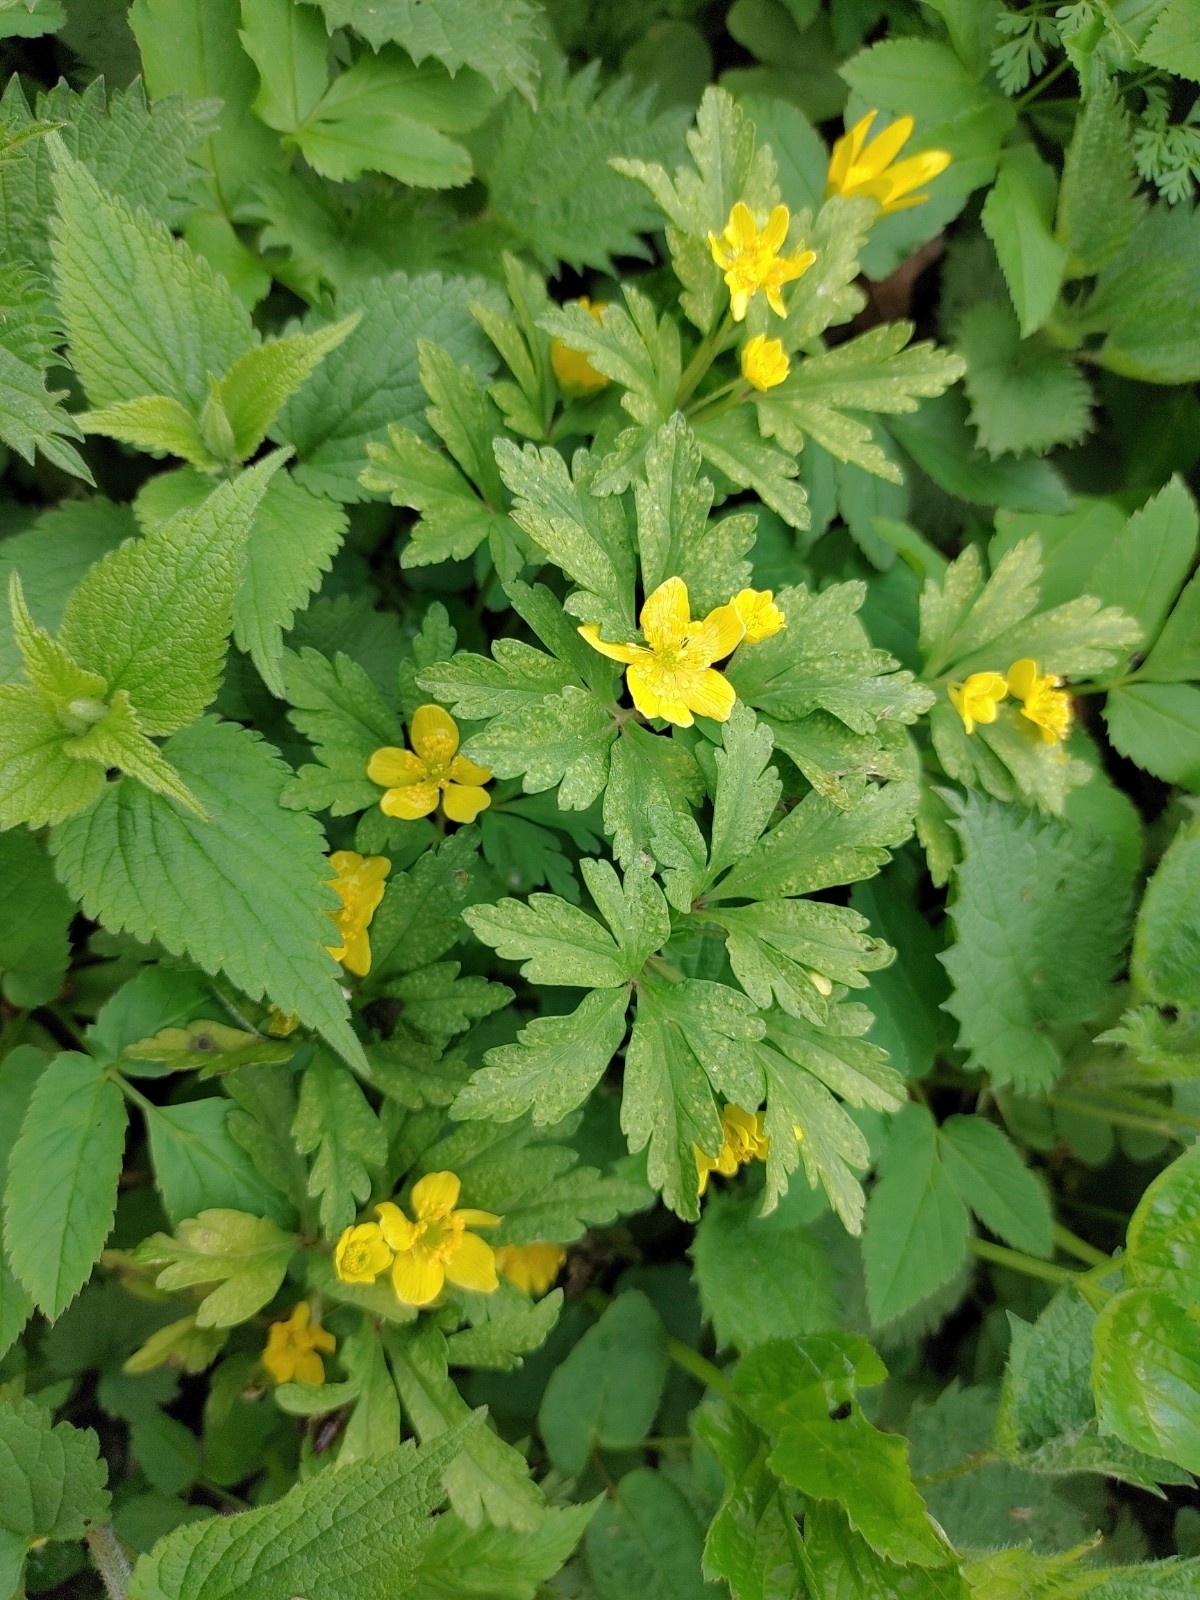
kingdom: Plantae
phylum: Tracheophyta
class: Magnoliopsida
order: Ranunculales
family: Ranunculaceae
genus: Anemone
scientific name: Anemone ranunculoides
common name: Yellow anemone
